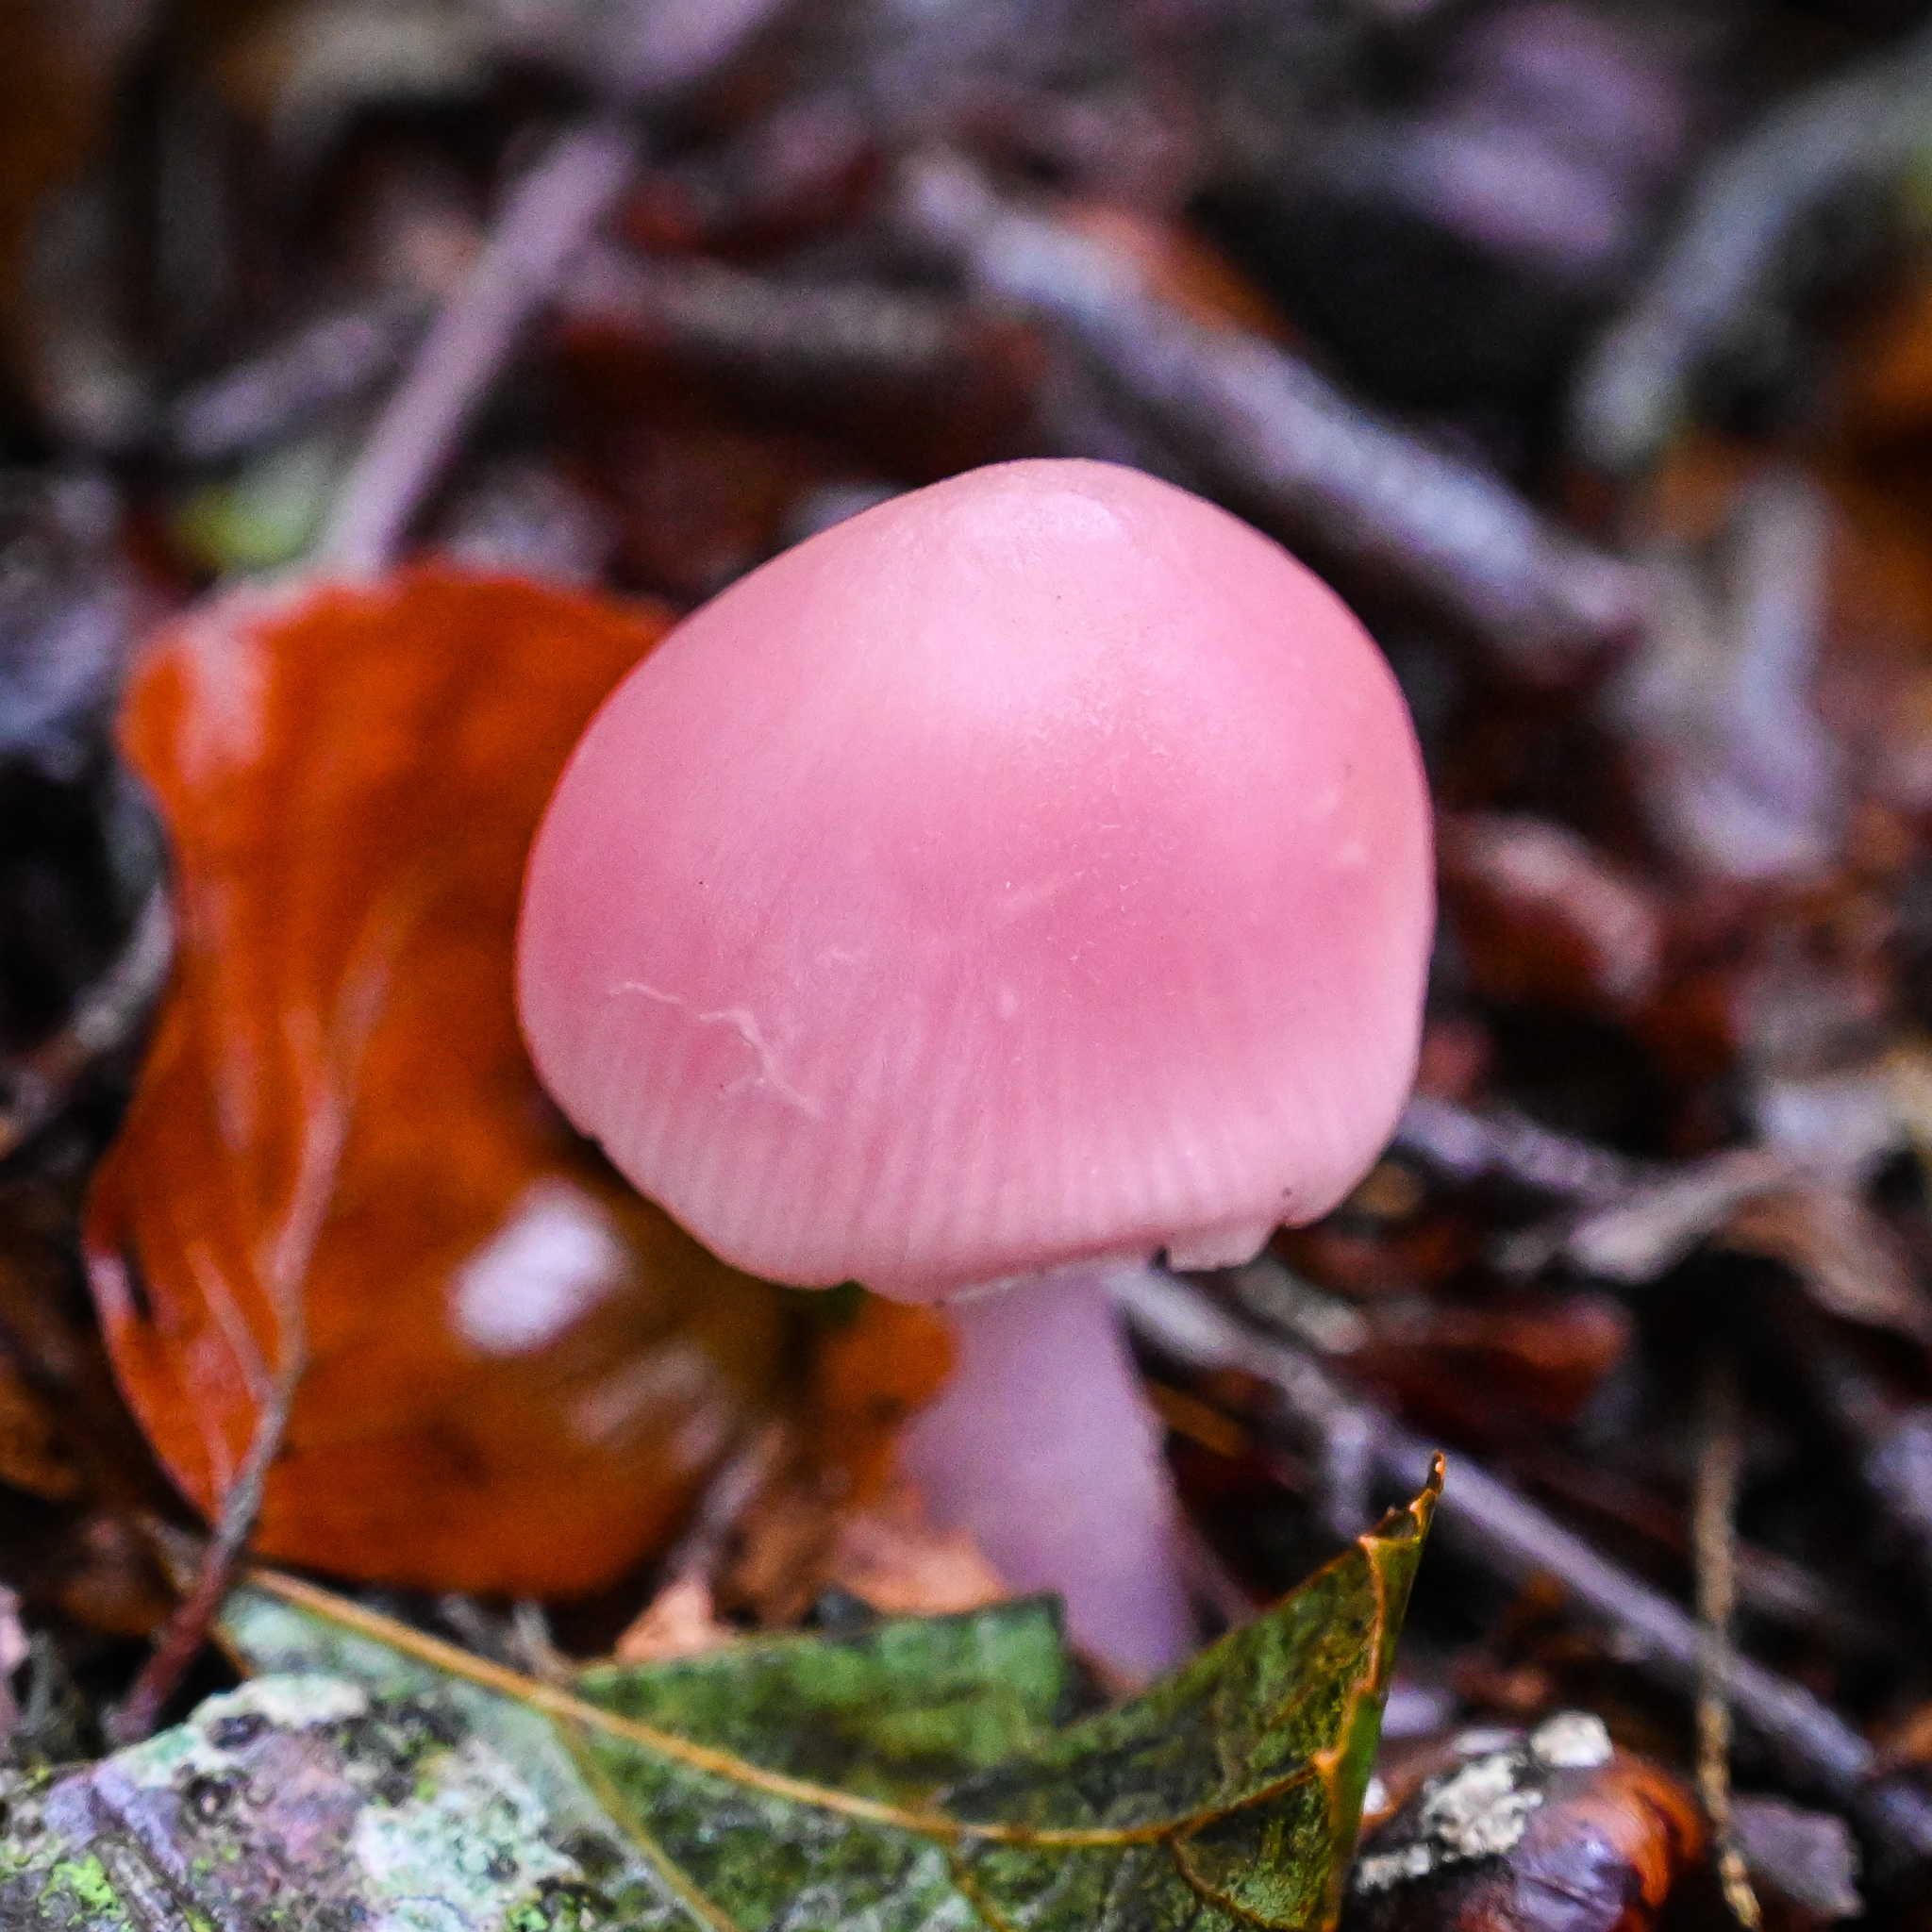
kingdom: Fungi
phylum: Basidiomycota
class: Agaricomycetes
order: Agaricales
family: Mycenaceae
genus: Mycena
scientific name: Mycena rosea
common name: Rosy bonnet
